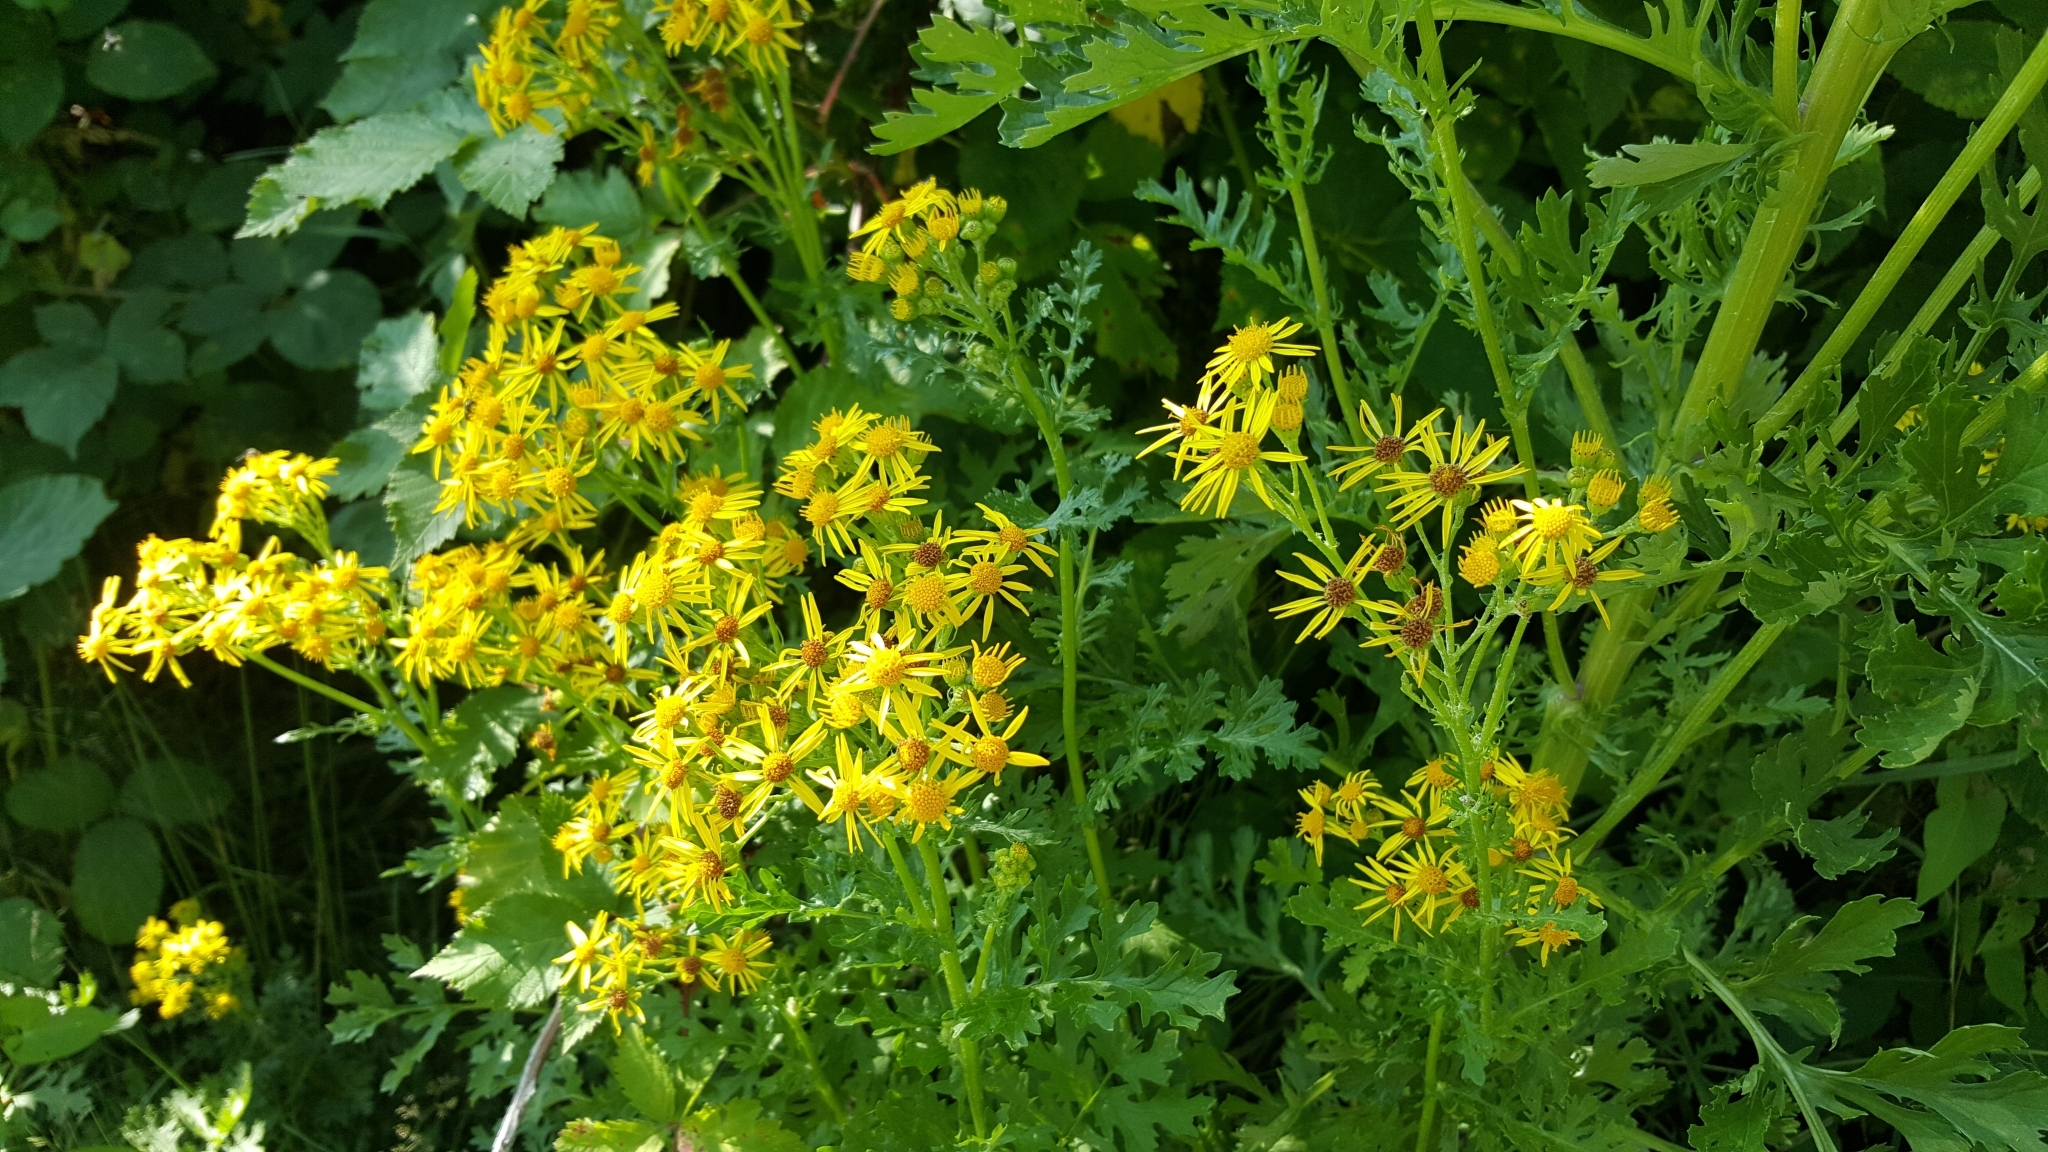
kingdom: Plantae
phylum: Tracheophyta
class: Magnoliopsida
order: Asterales
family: Asteraceae
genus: Jacobaea
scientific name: Jacobaea vulgaris
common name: Stinking willie
